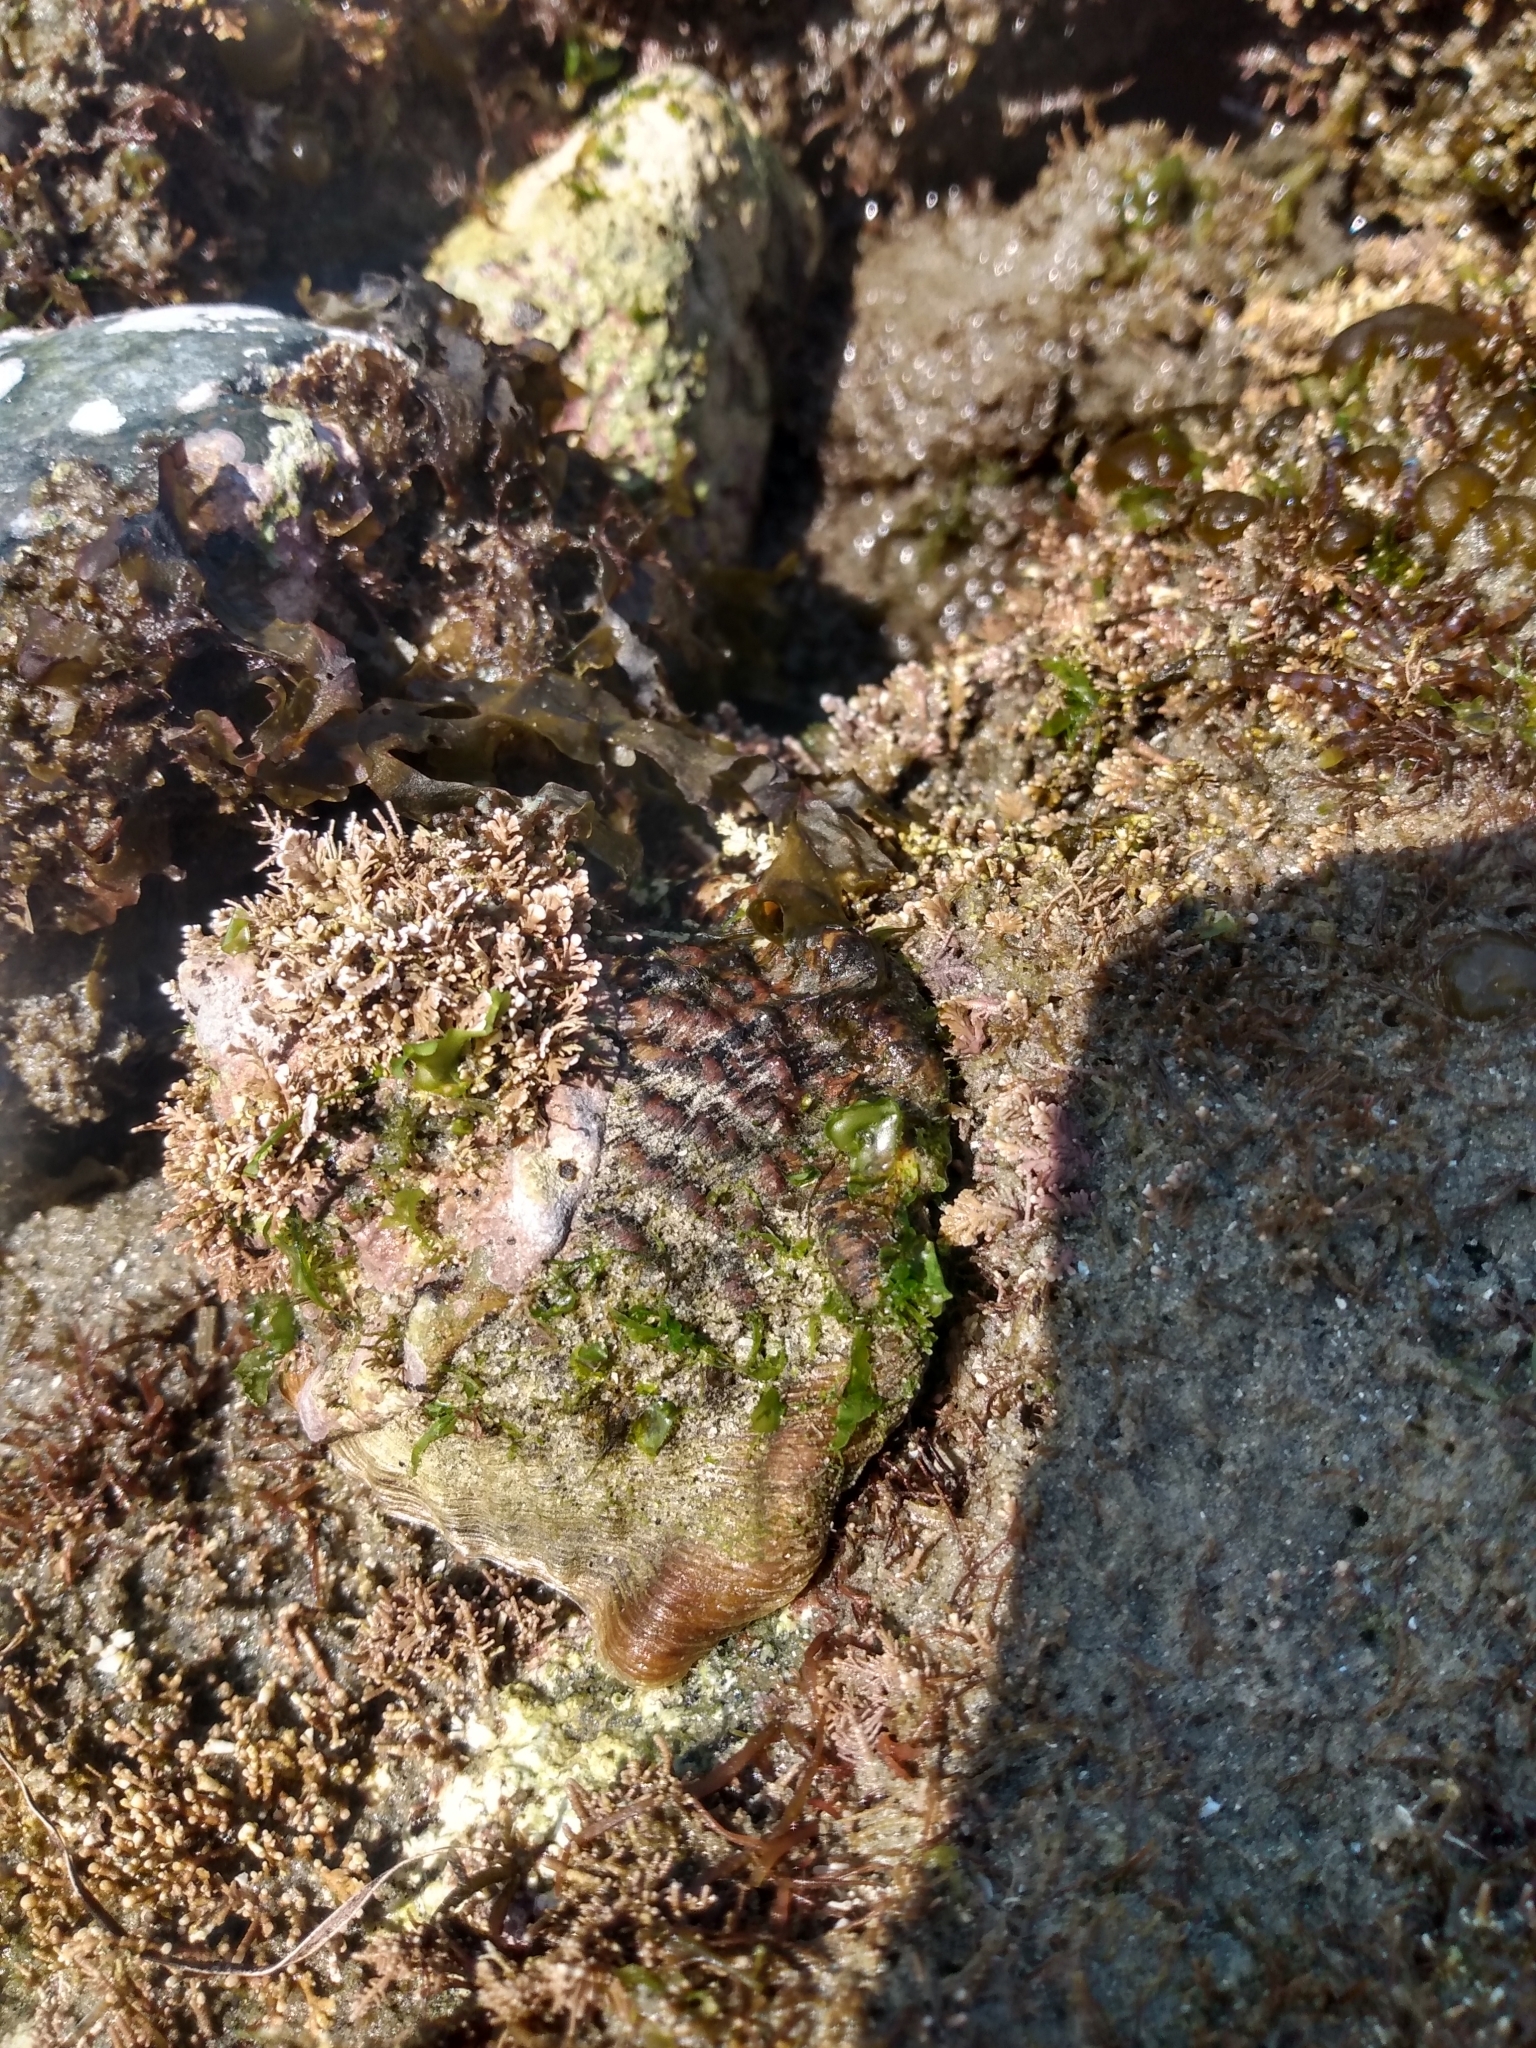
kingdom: Animalia
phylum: Mollusca
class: Gastropoda
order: Trochida
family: Turbinidae
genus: Megastraea
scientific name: Megastraea undosa
